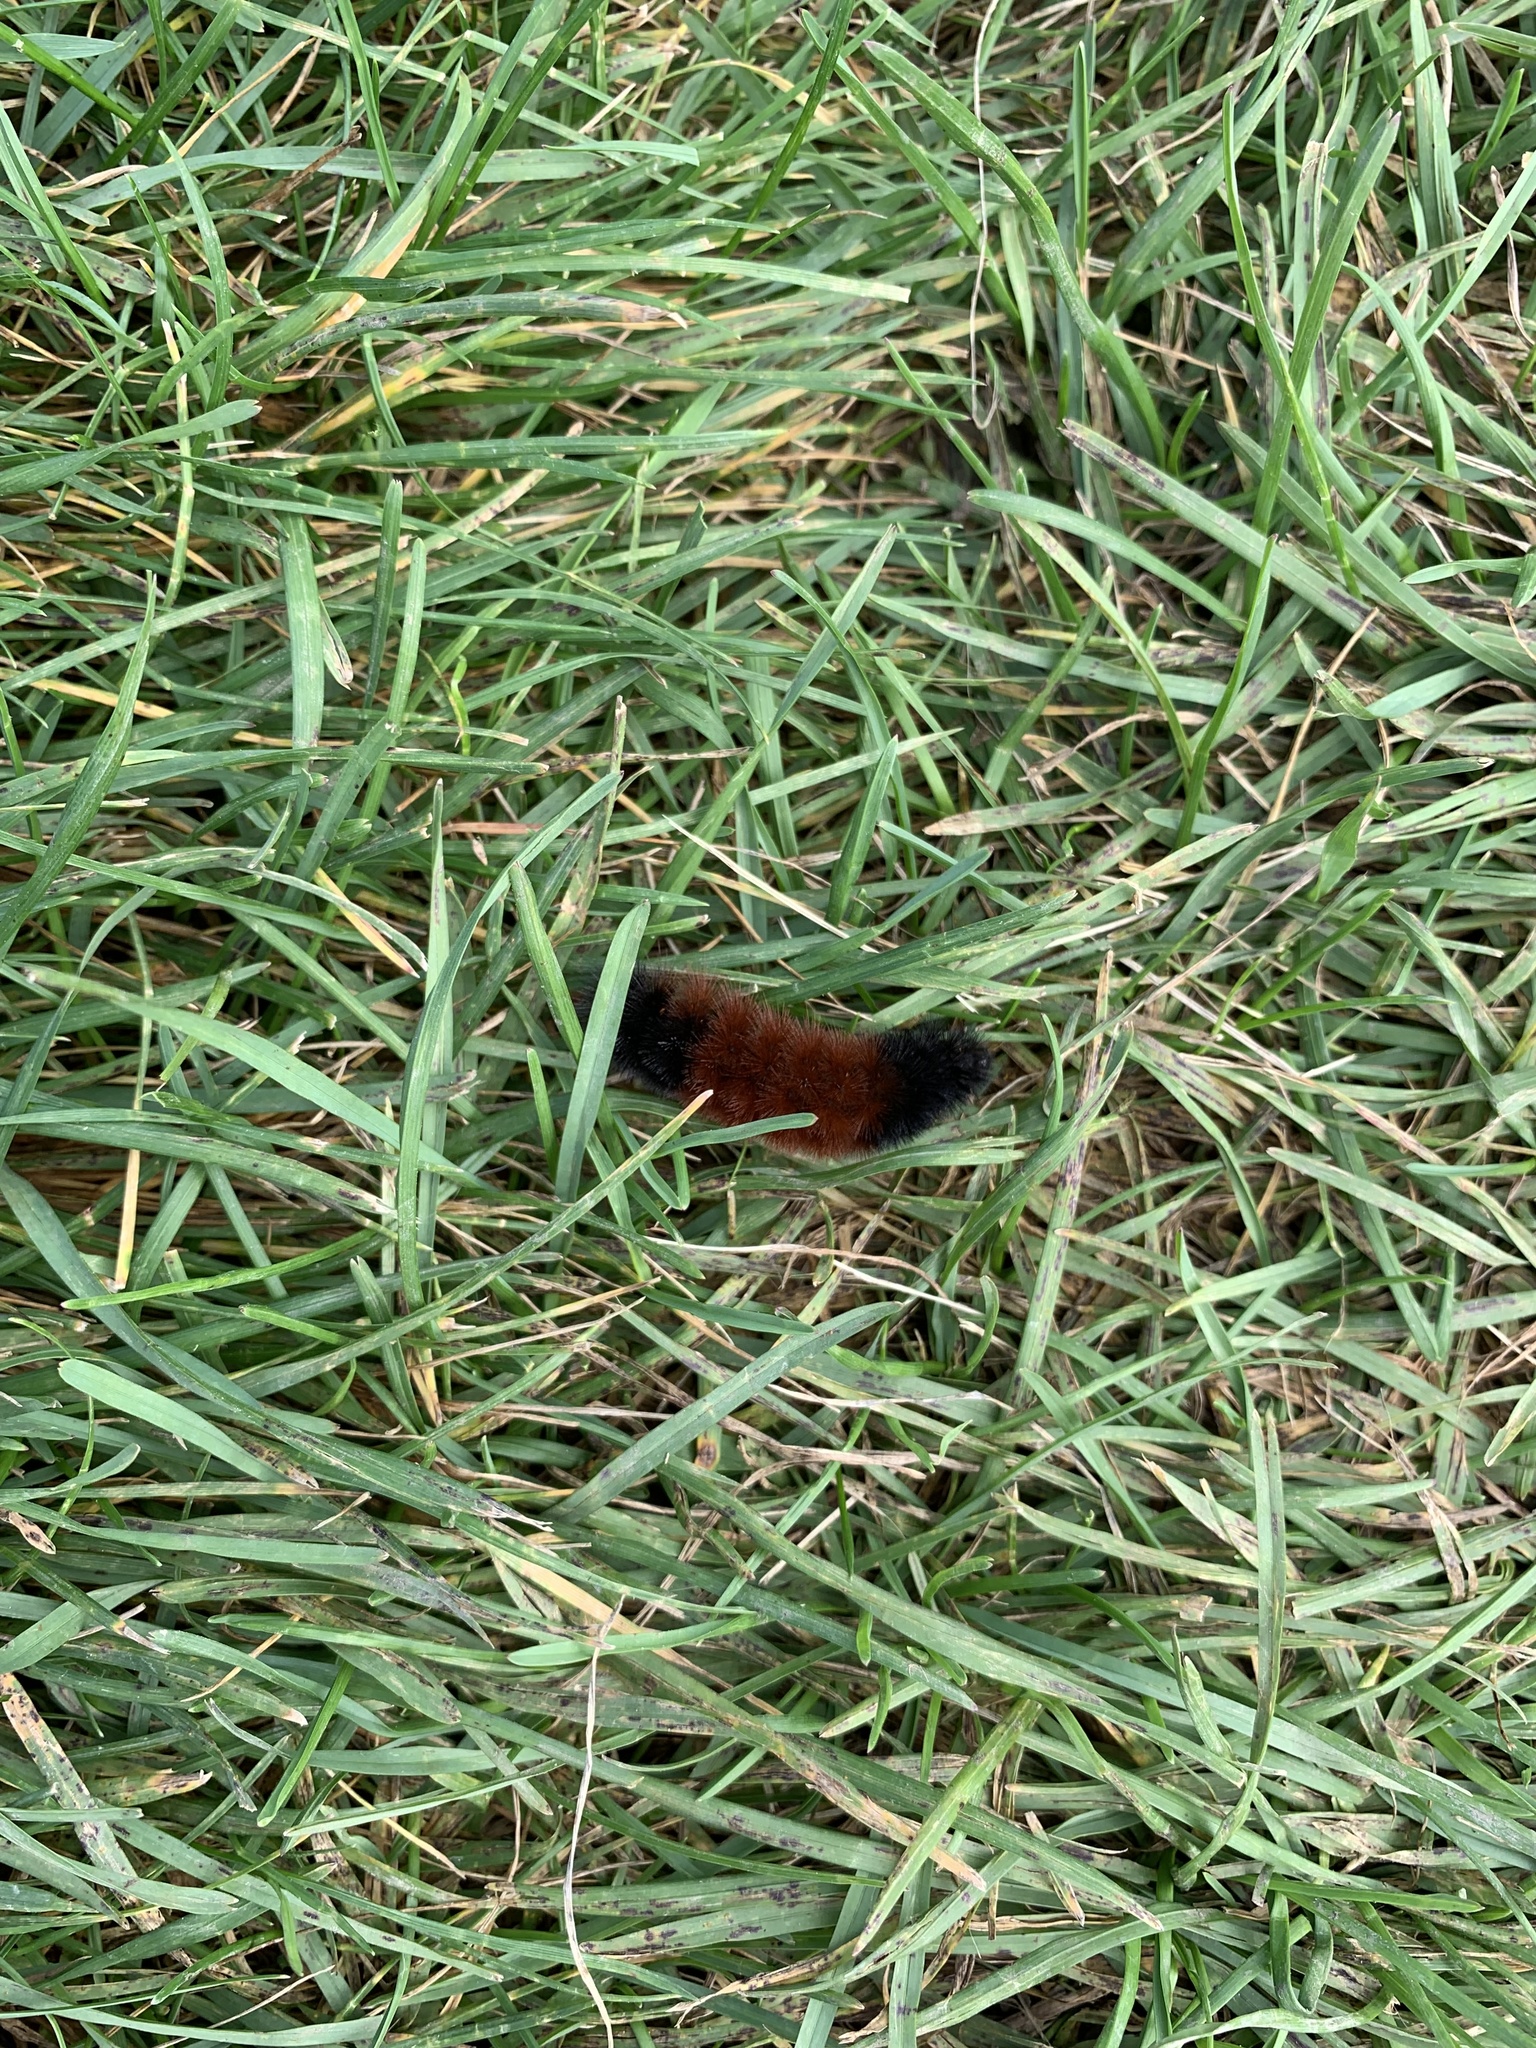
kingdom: Animalia
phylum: Arthropoda
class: Insecta
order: Lepidoptera
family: Erebidae
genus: Pyrrharctia
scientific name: Pyrrharctia isabella
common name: Isabella tiger moth
